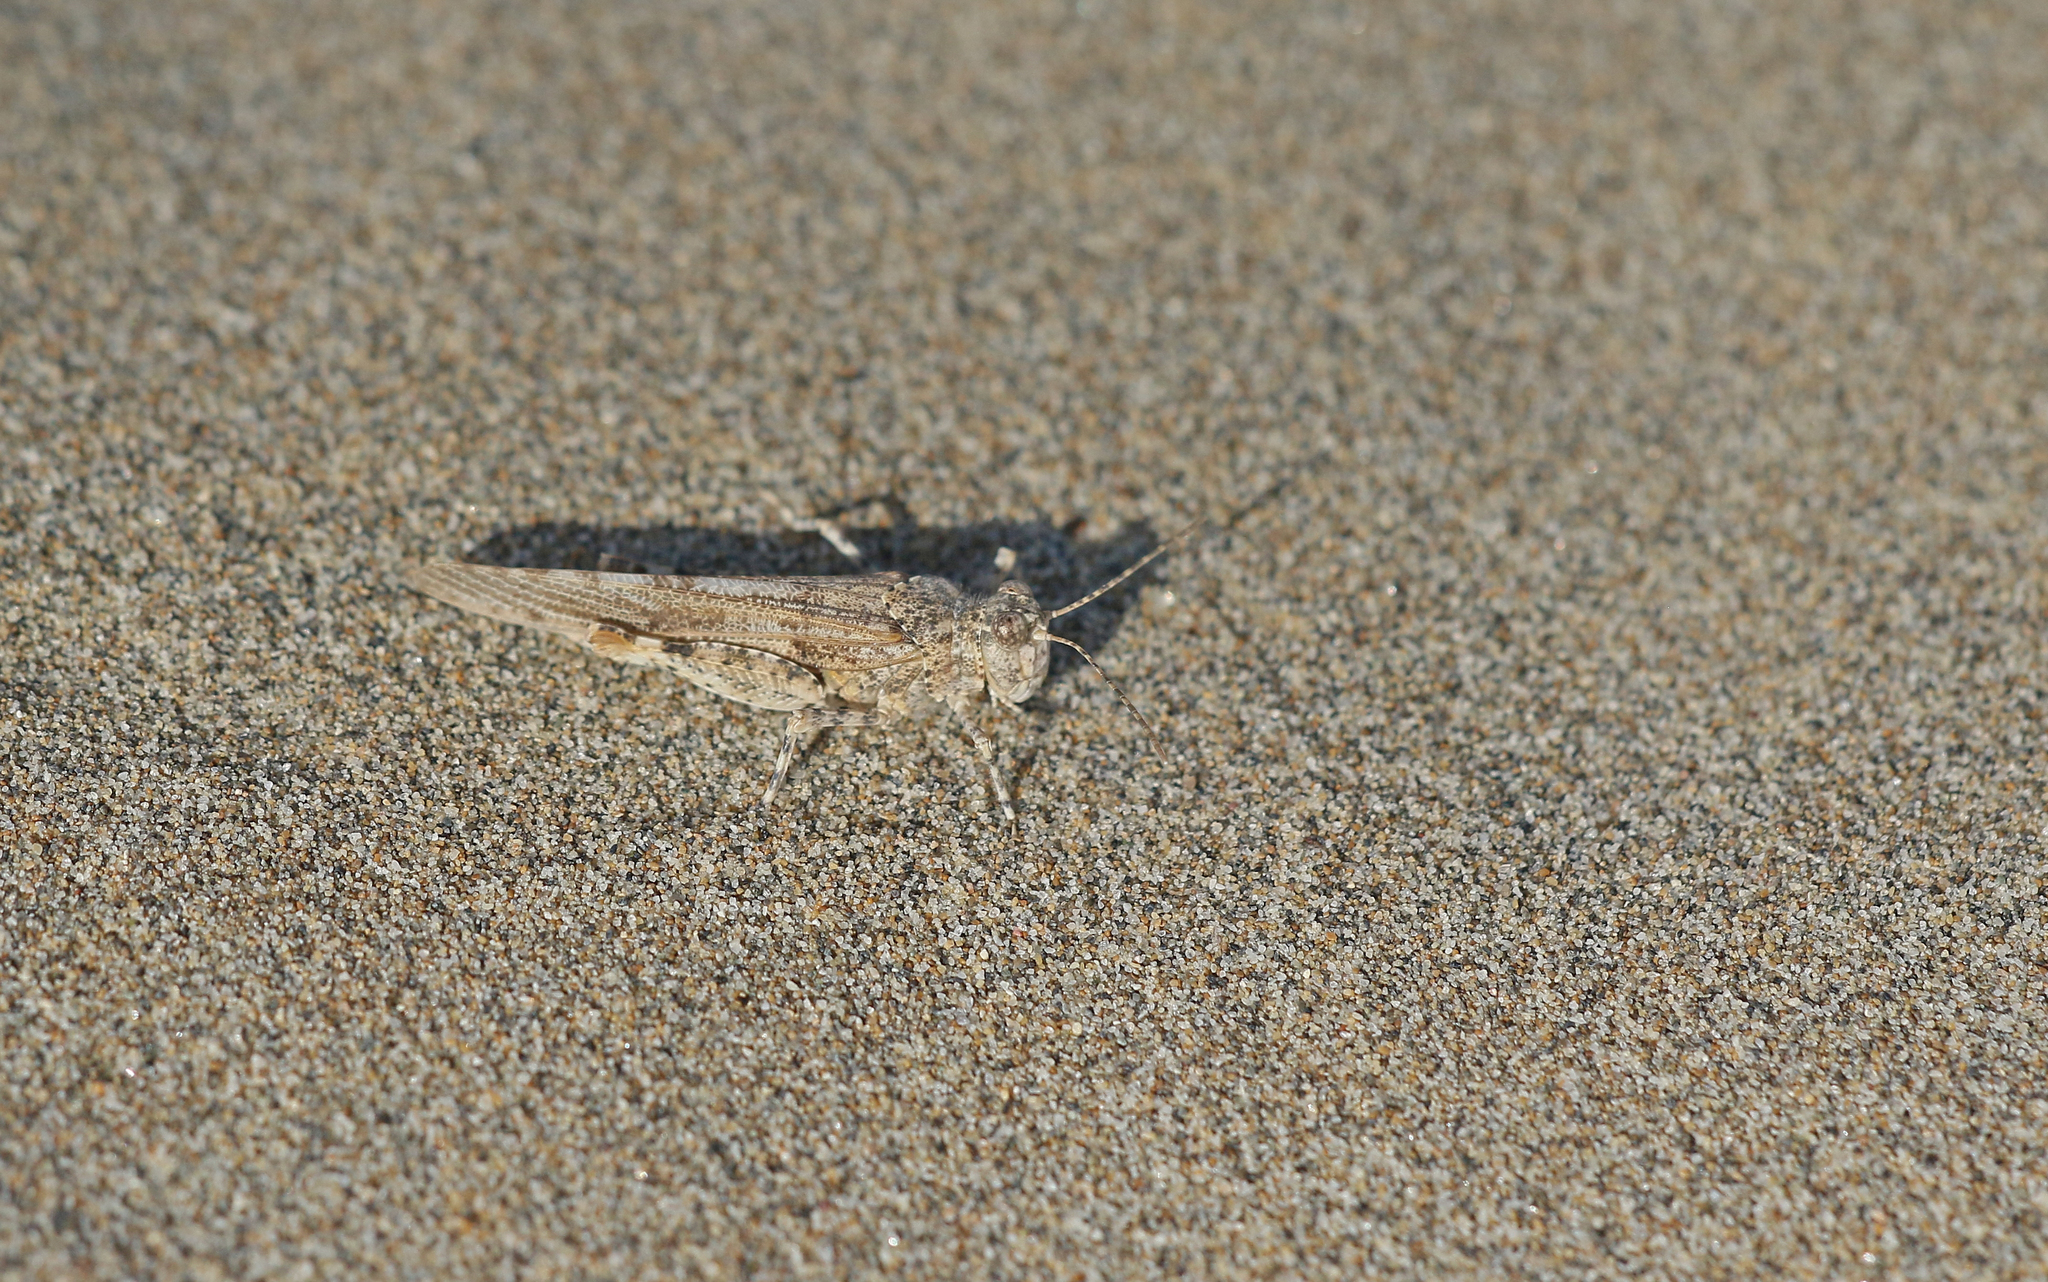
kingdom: Animalia
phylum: Arthropoda
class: Insecta
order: Orthoptera
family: Acrididae
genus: Sphingonotus
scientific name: Sphingonotus caerulans
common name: Blue-winged locust
